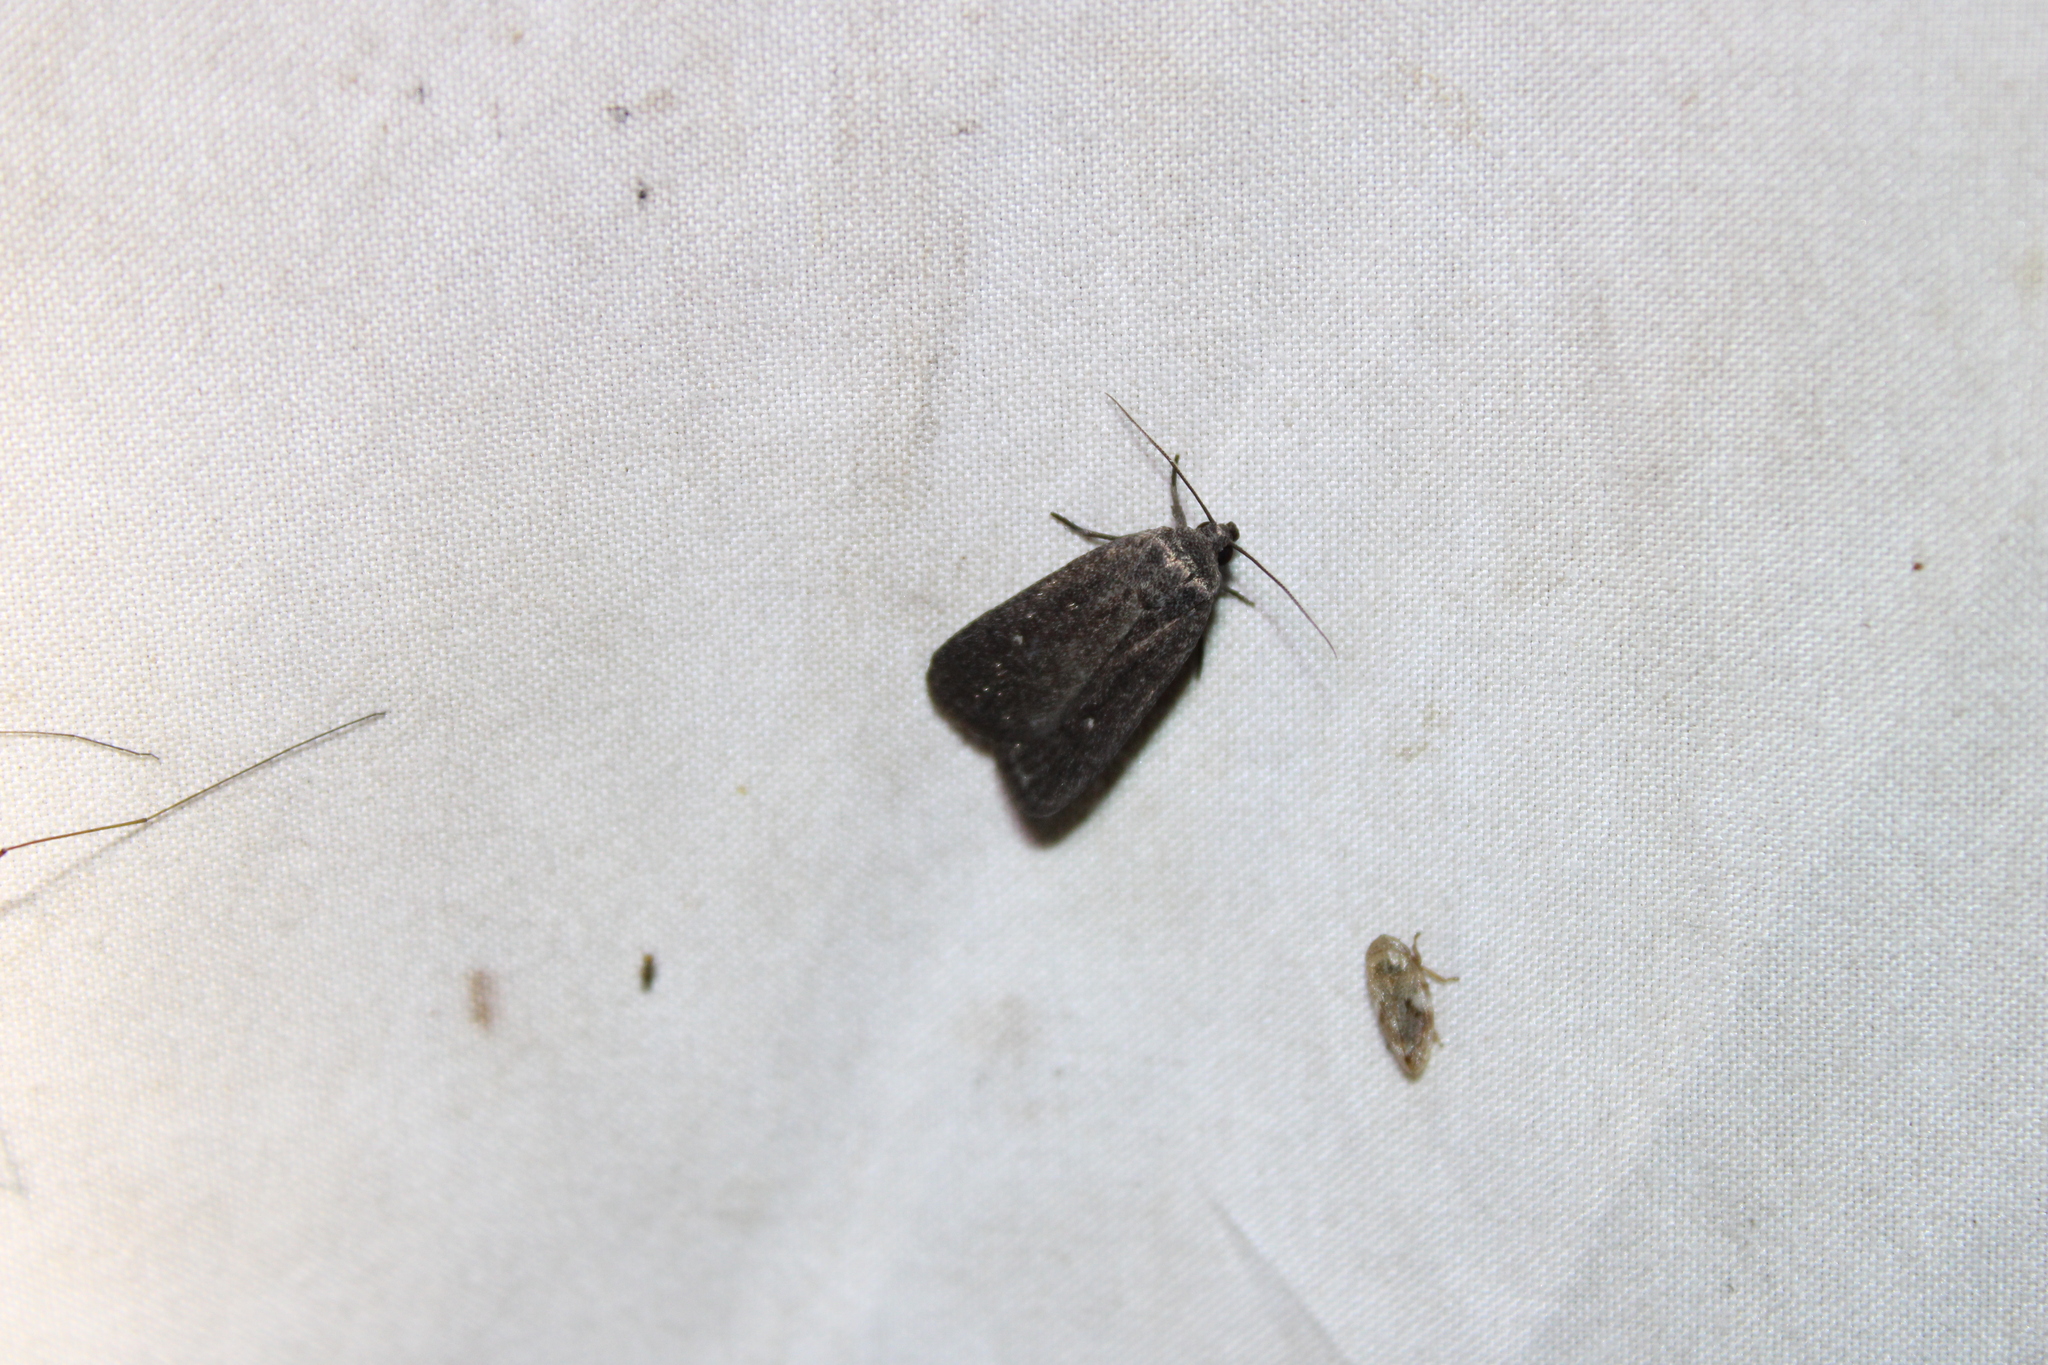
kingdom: Animalia
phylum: Arthropoda
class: Insecta
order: Lepidoptera
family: Noctuidae
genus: Proxenus
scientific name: Proxenus miranda
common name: Miranda moth
